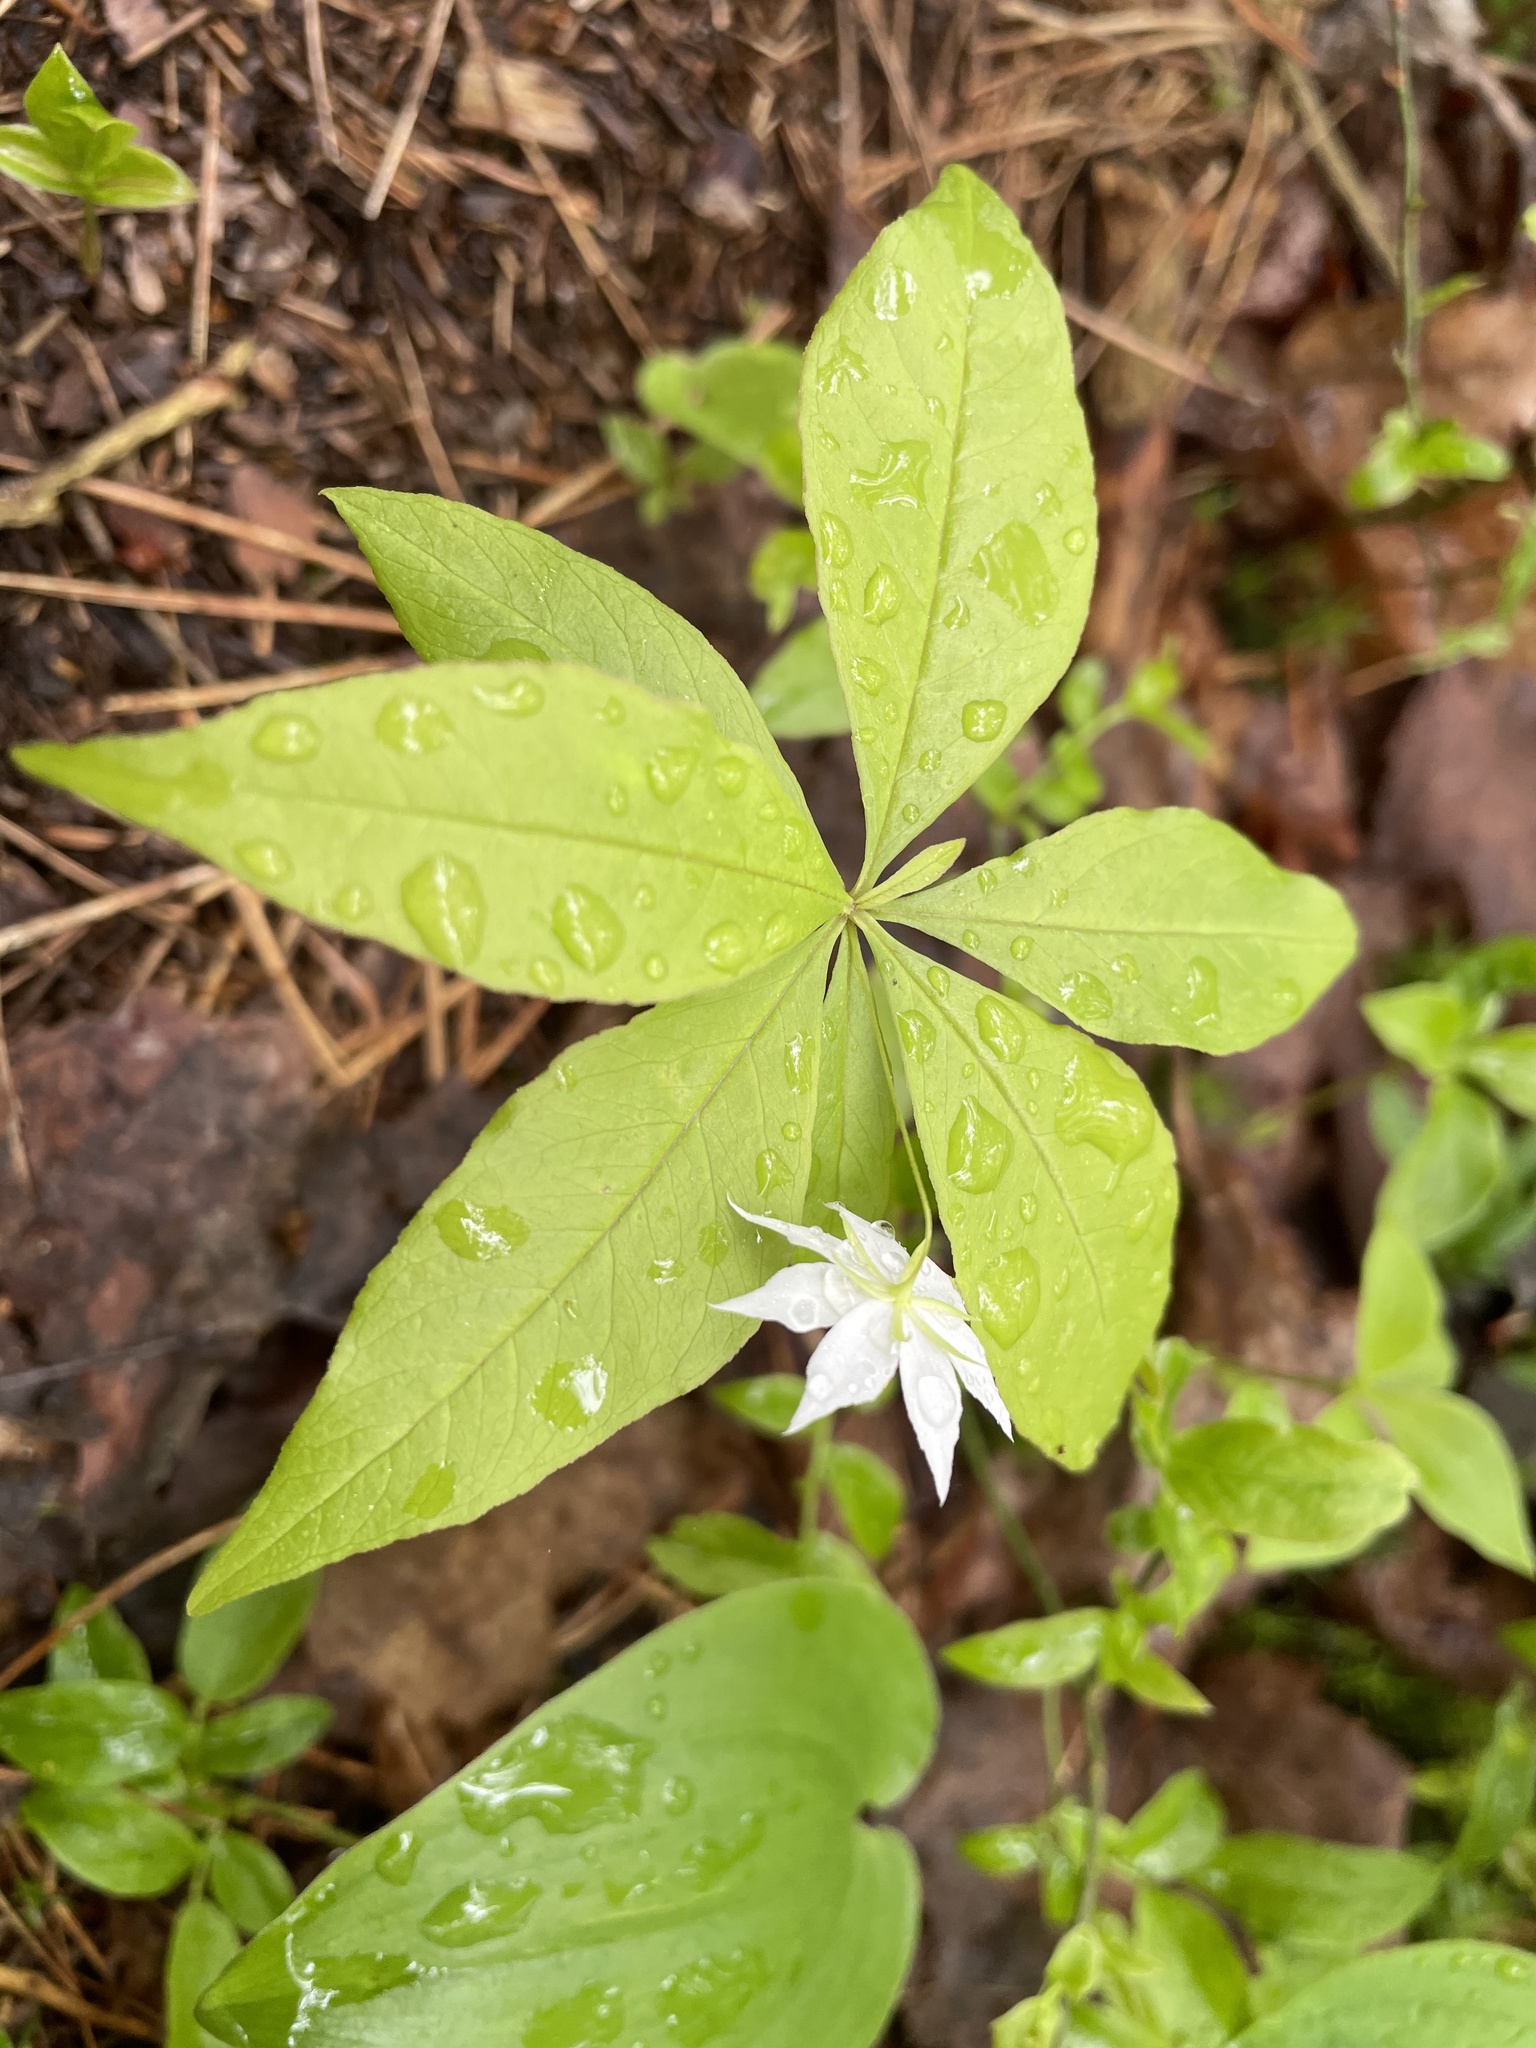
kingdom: Plantae
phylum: Tracheophyta
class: Magnoliopsida
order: Ericales
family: Primulaceae
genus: Lysimachia
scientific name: Lysimachia borealis
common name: American starflower
